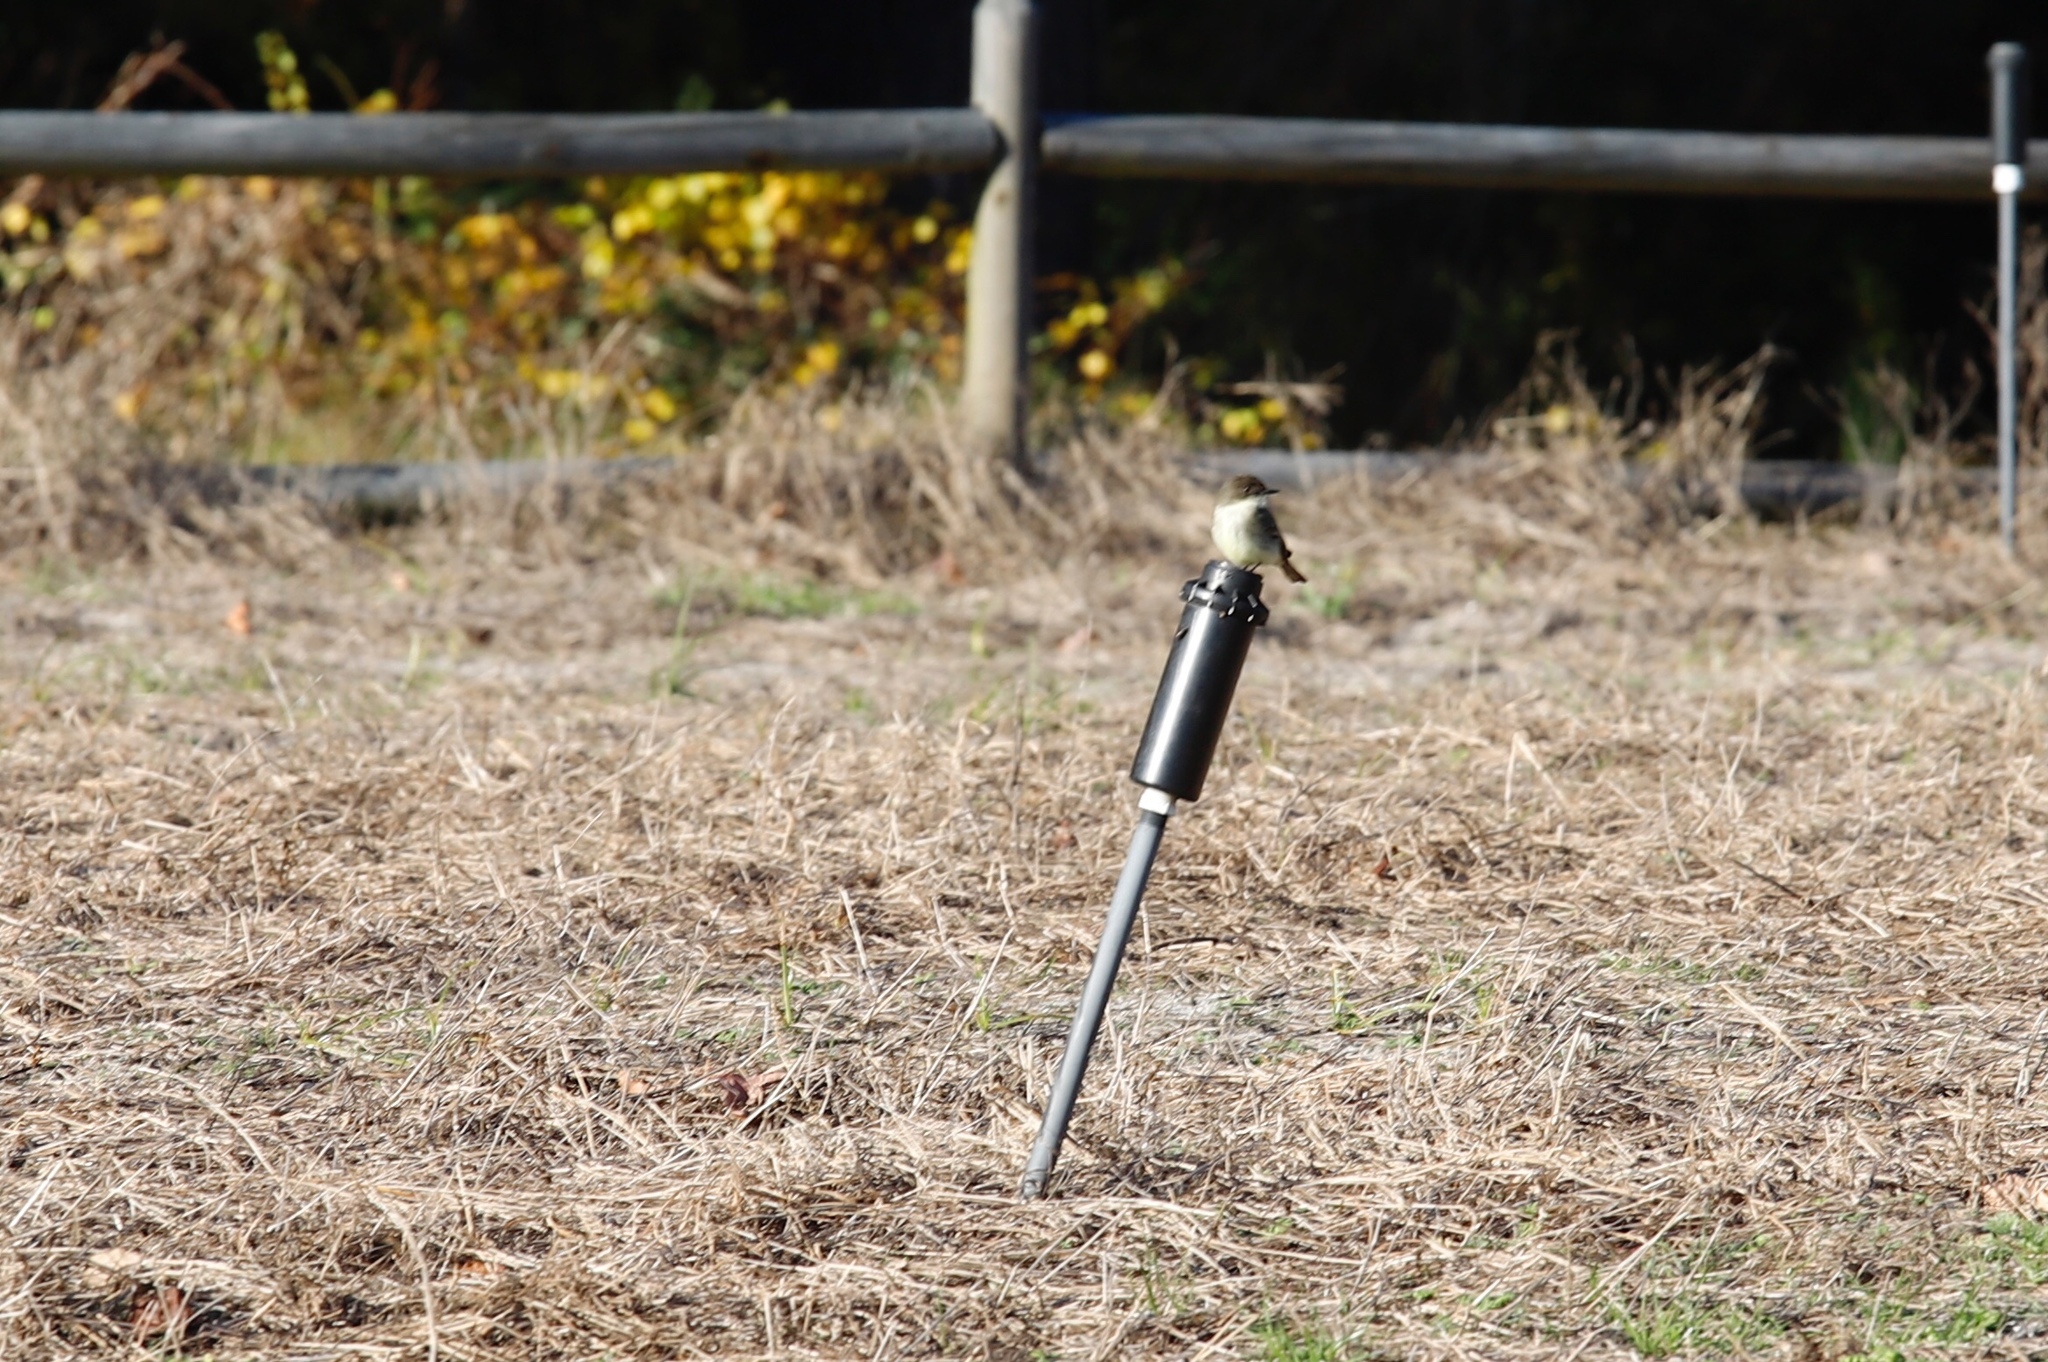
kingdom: Animalia
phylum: Chordata
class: Aves
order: Passeriformes
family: Tyrannidae
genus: Sayornis
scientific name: Sayornis phoebe
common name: Eastern phoebe
